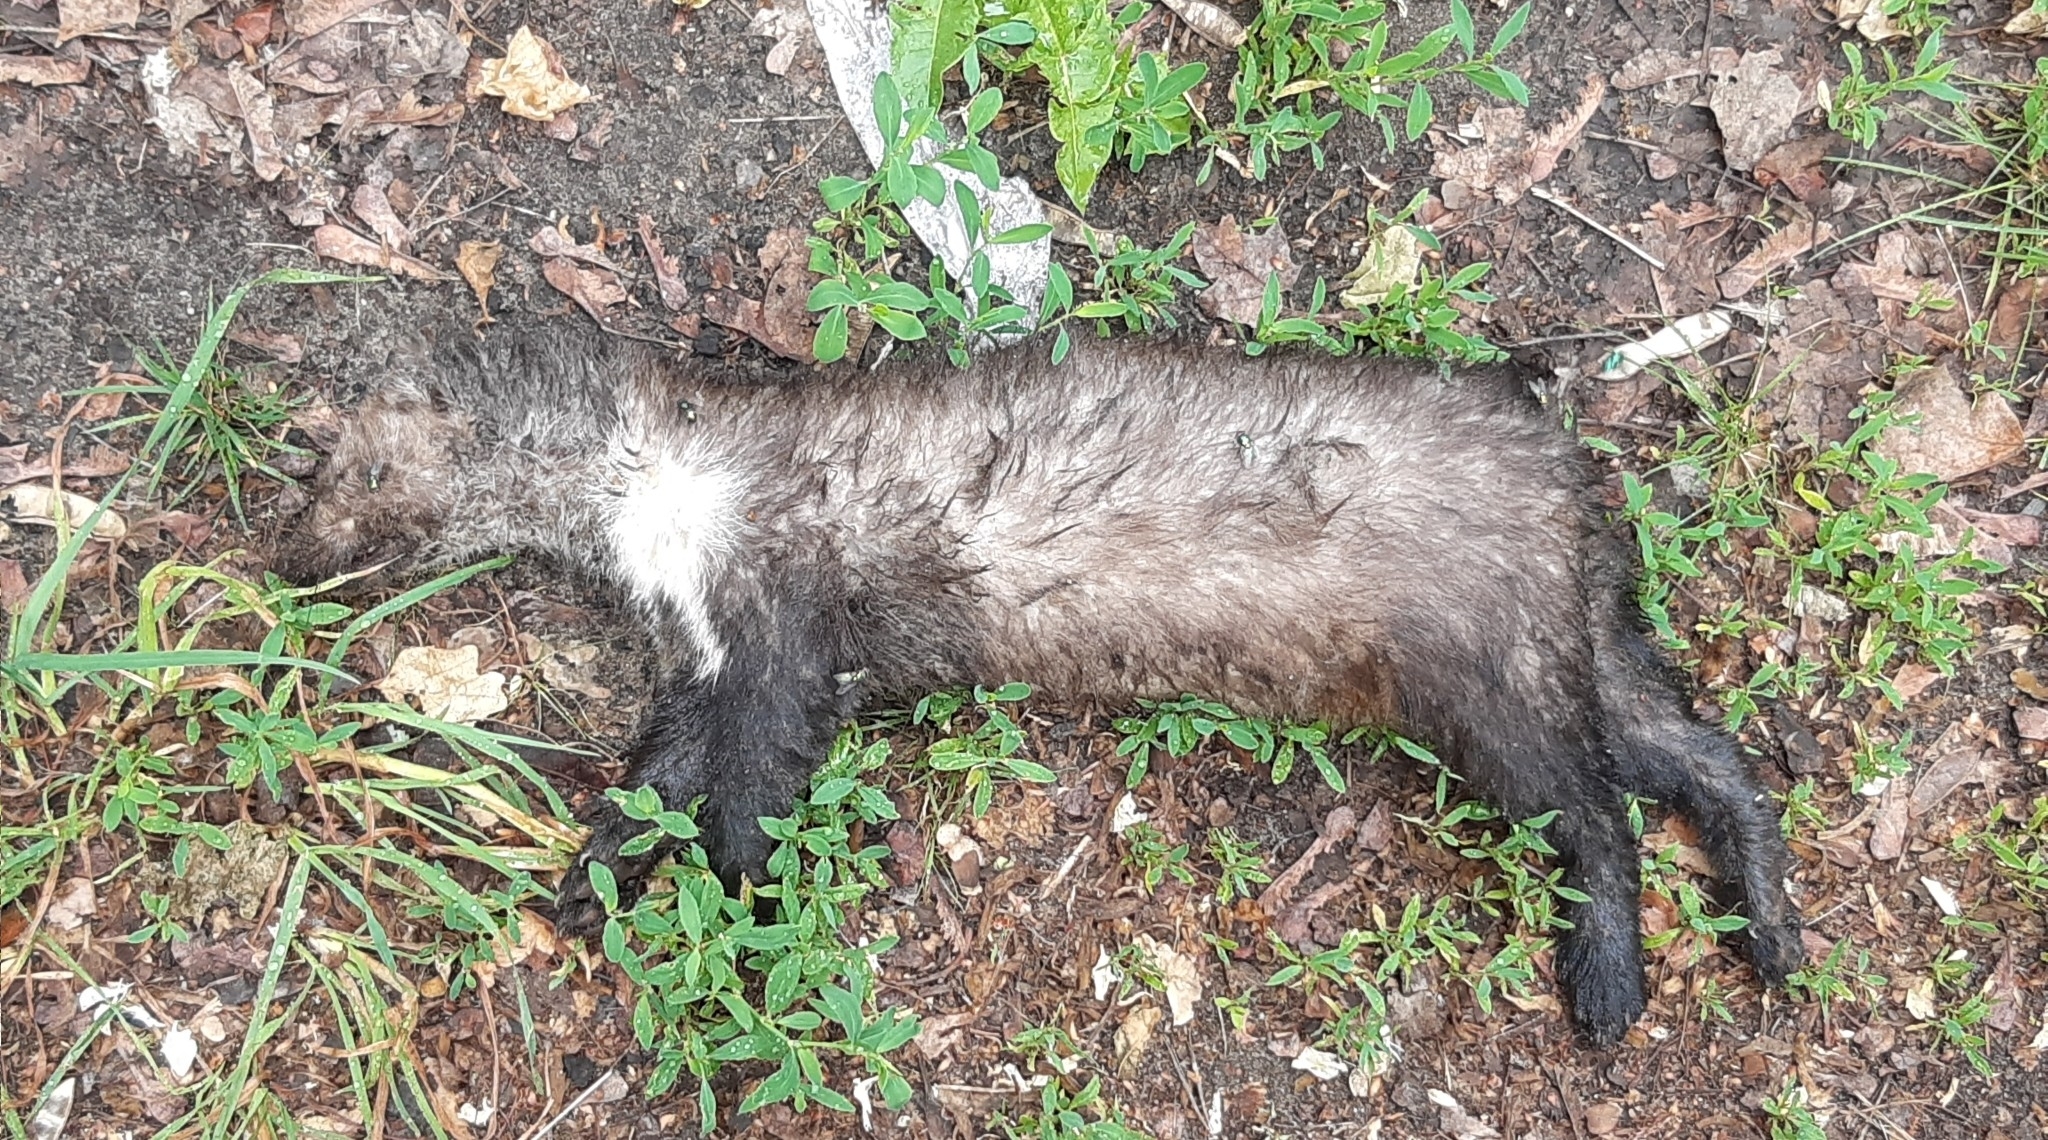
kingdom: Animalia
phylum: Chordata
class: Mammalia
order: Carnivora
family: Mustelidae
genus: Martes
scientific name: Martes foina
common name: Beech marten
